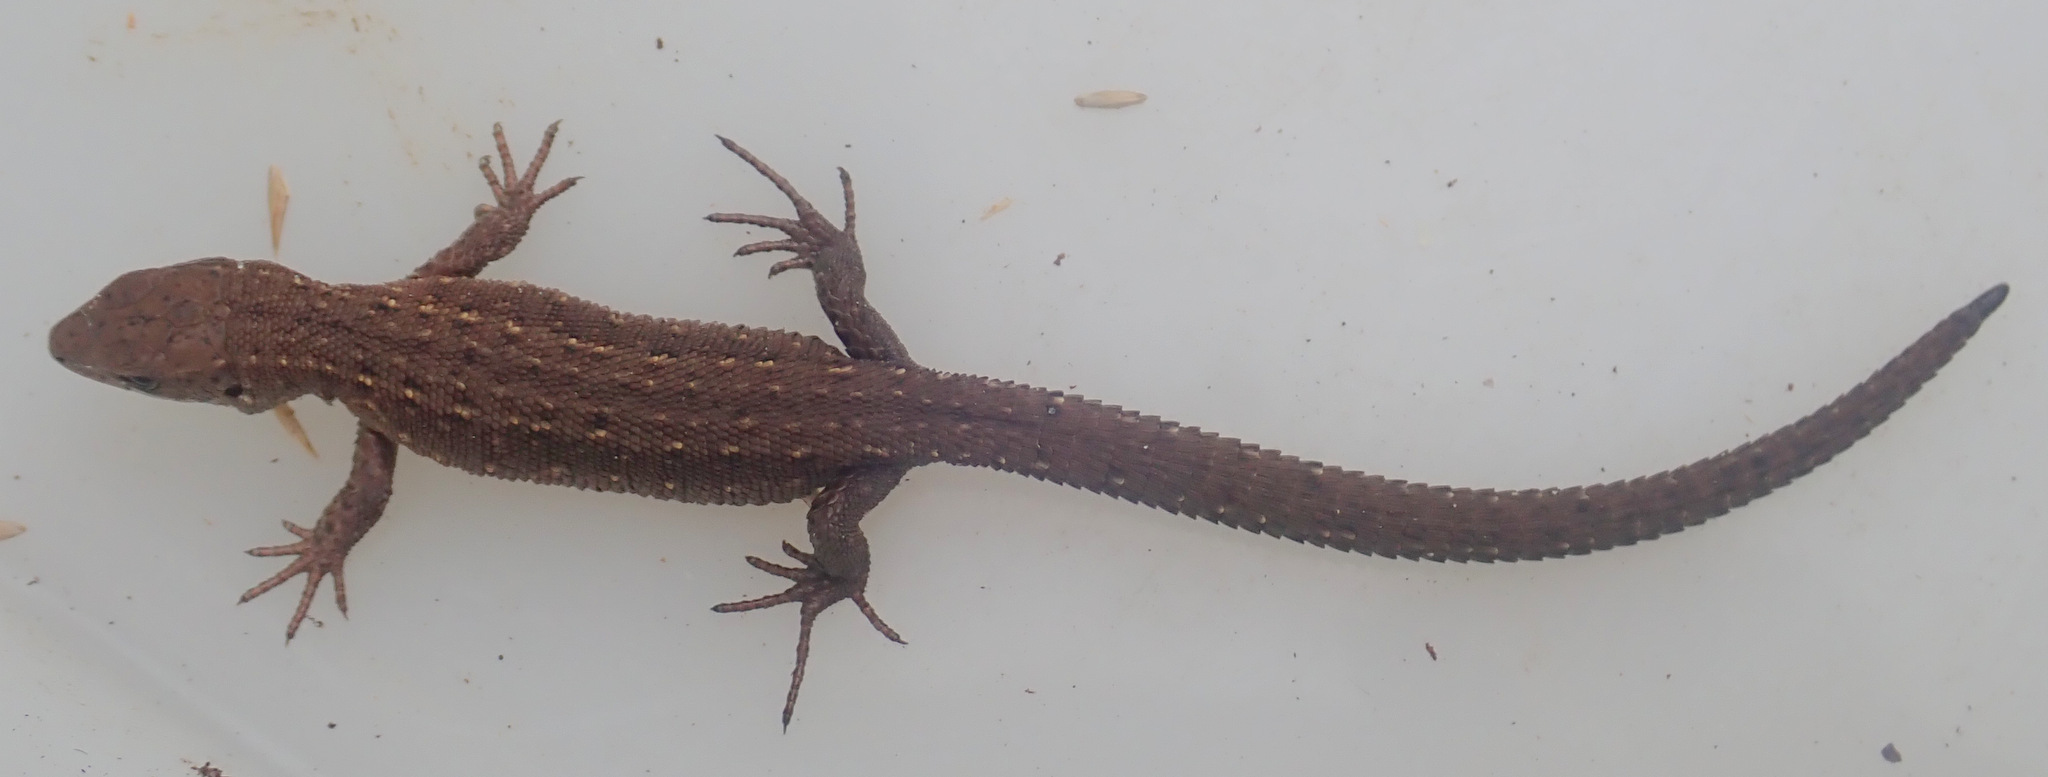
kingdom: Animalia
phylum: Chordata
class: Squamata
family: Lacertidae
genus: Zootoca
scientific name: Zootoca vivipara
